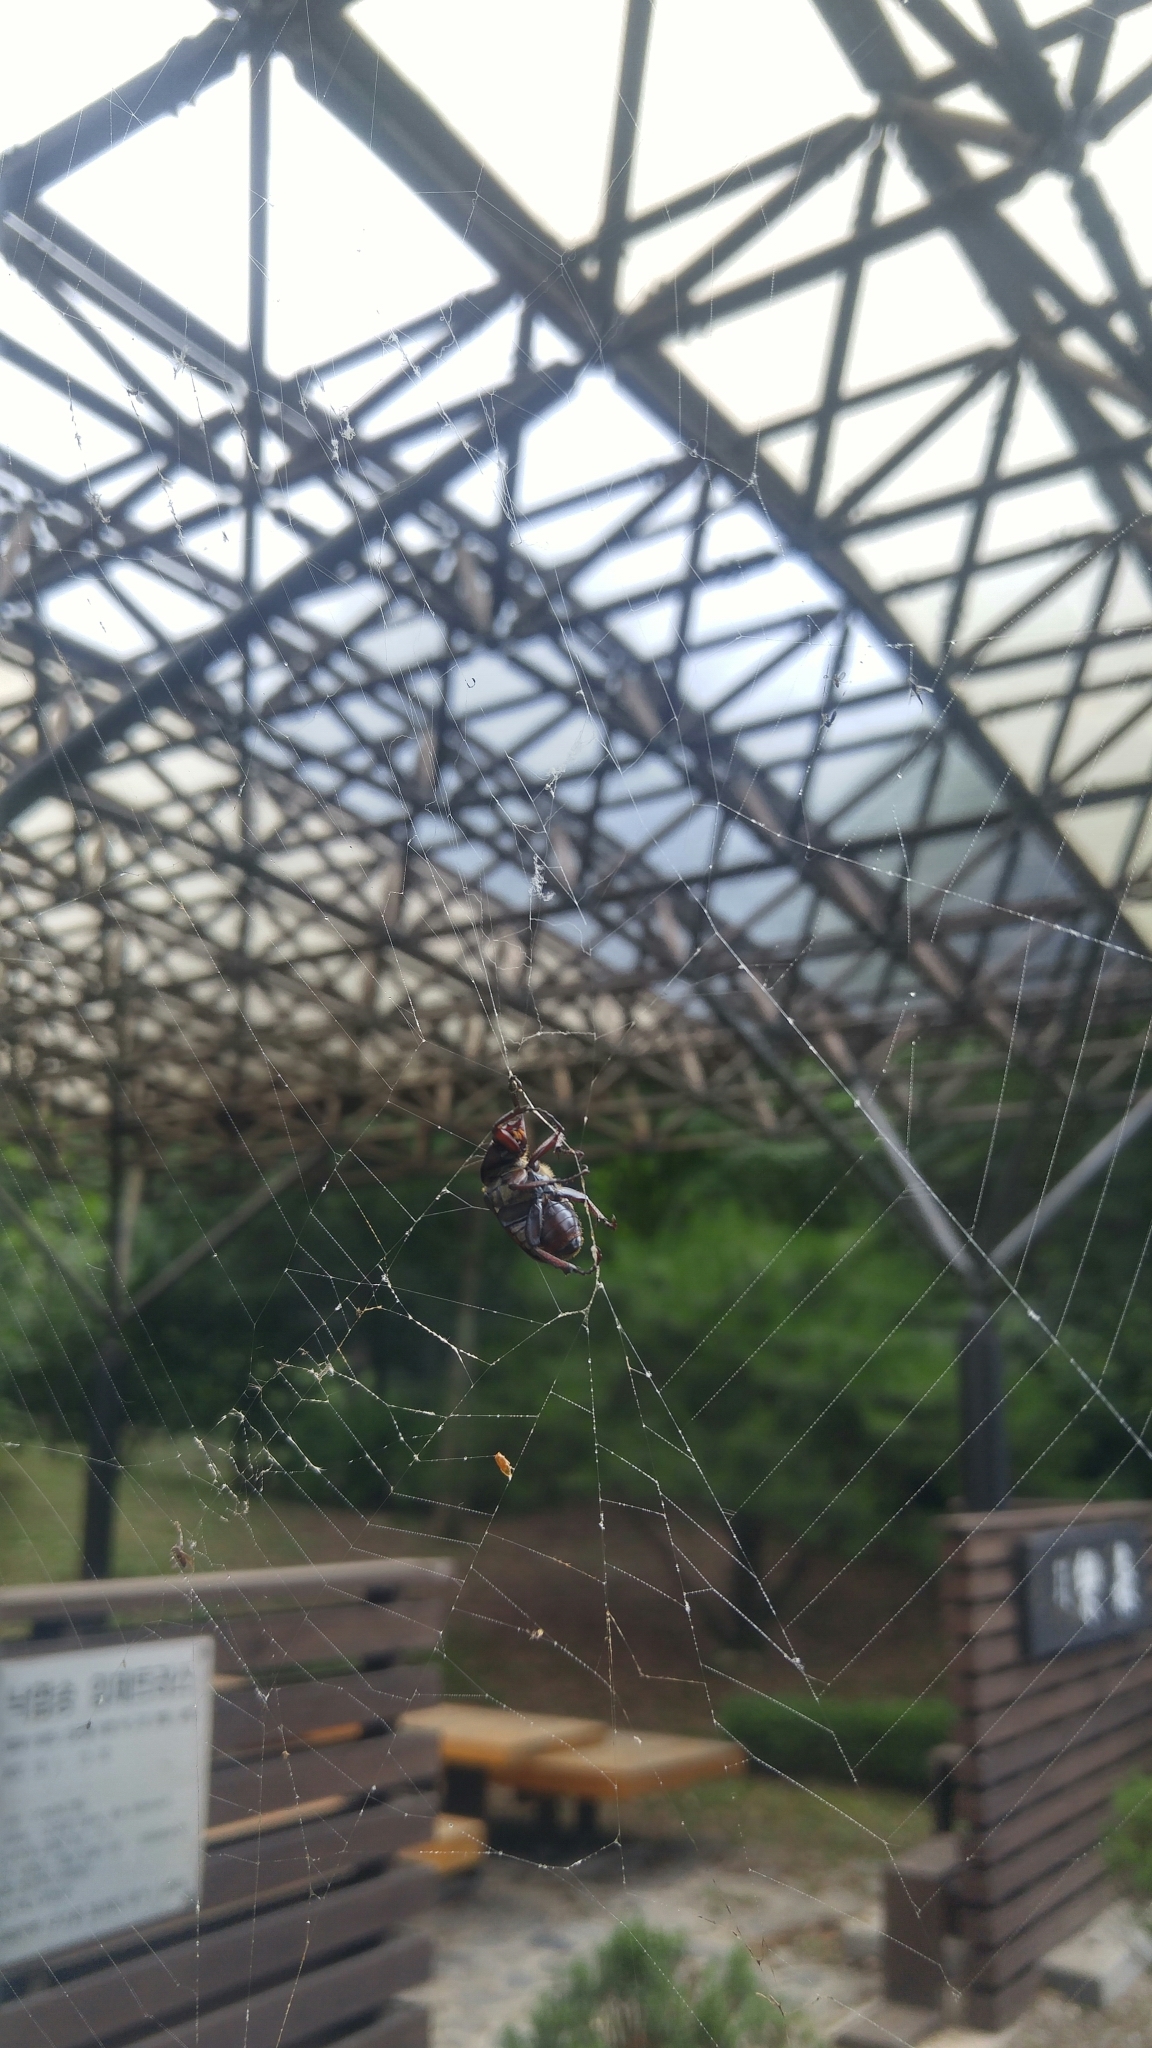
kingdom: Animalia
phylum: Arthropoda
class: Insecta
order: Coleoptera
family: Scarabaeidae
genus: Dicronocephalus
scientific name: Dicronocephalus adamsi
